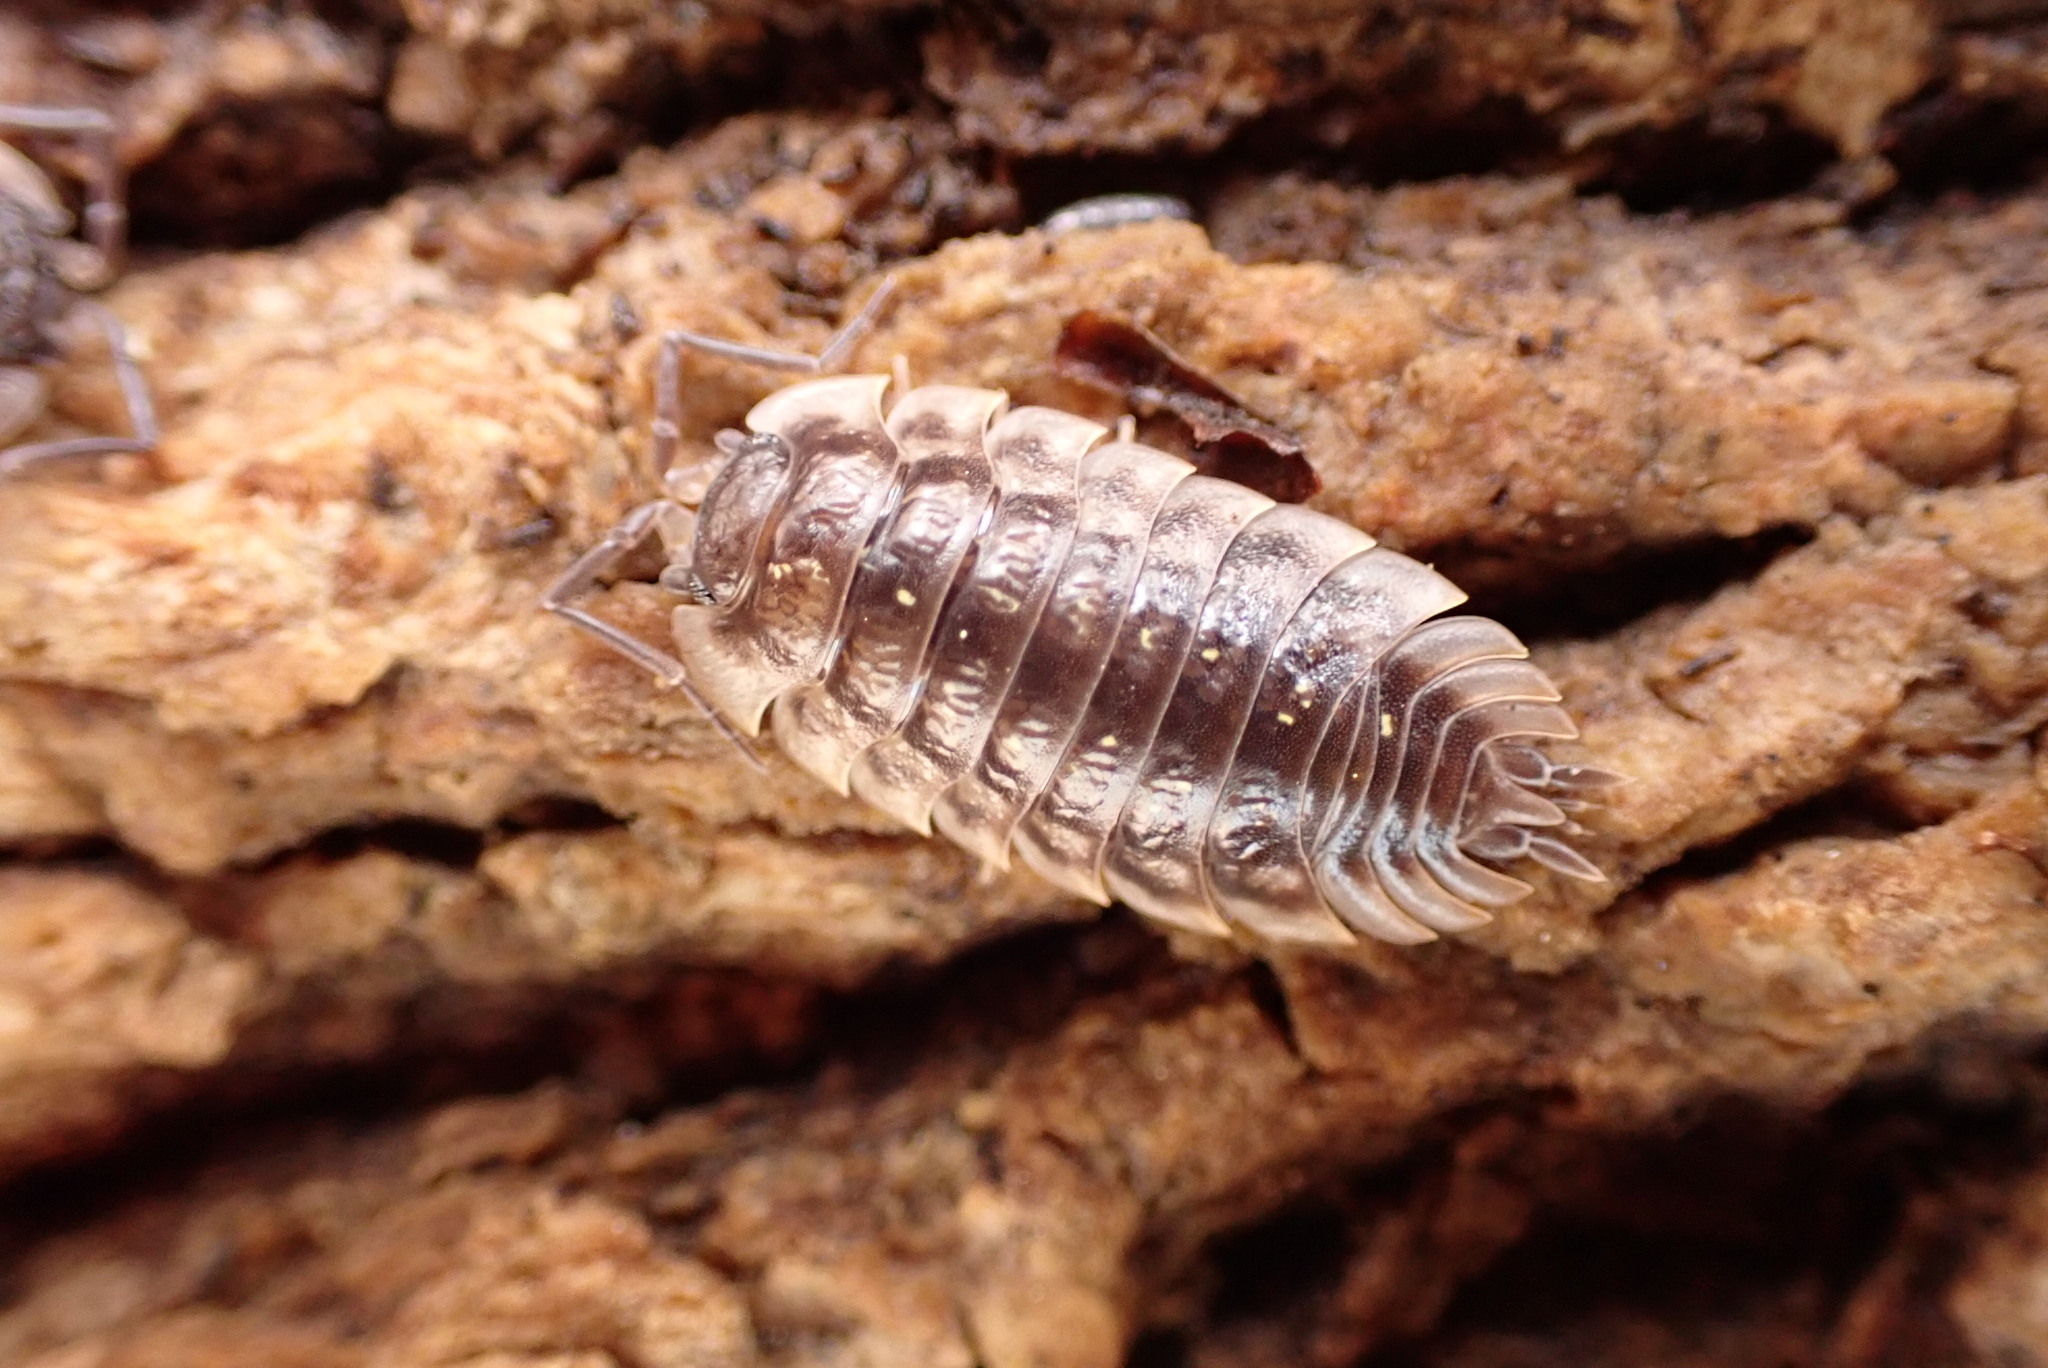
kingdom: Animalia
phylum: Arthropoda
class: Malacostraca
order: Isopoda
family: Oniscidae
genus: Oniscus
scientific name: Oniscus asellus
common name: Common shiny woodlouse
